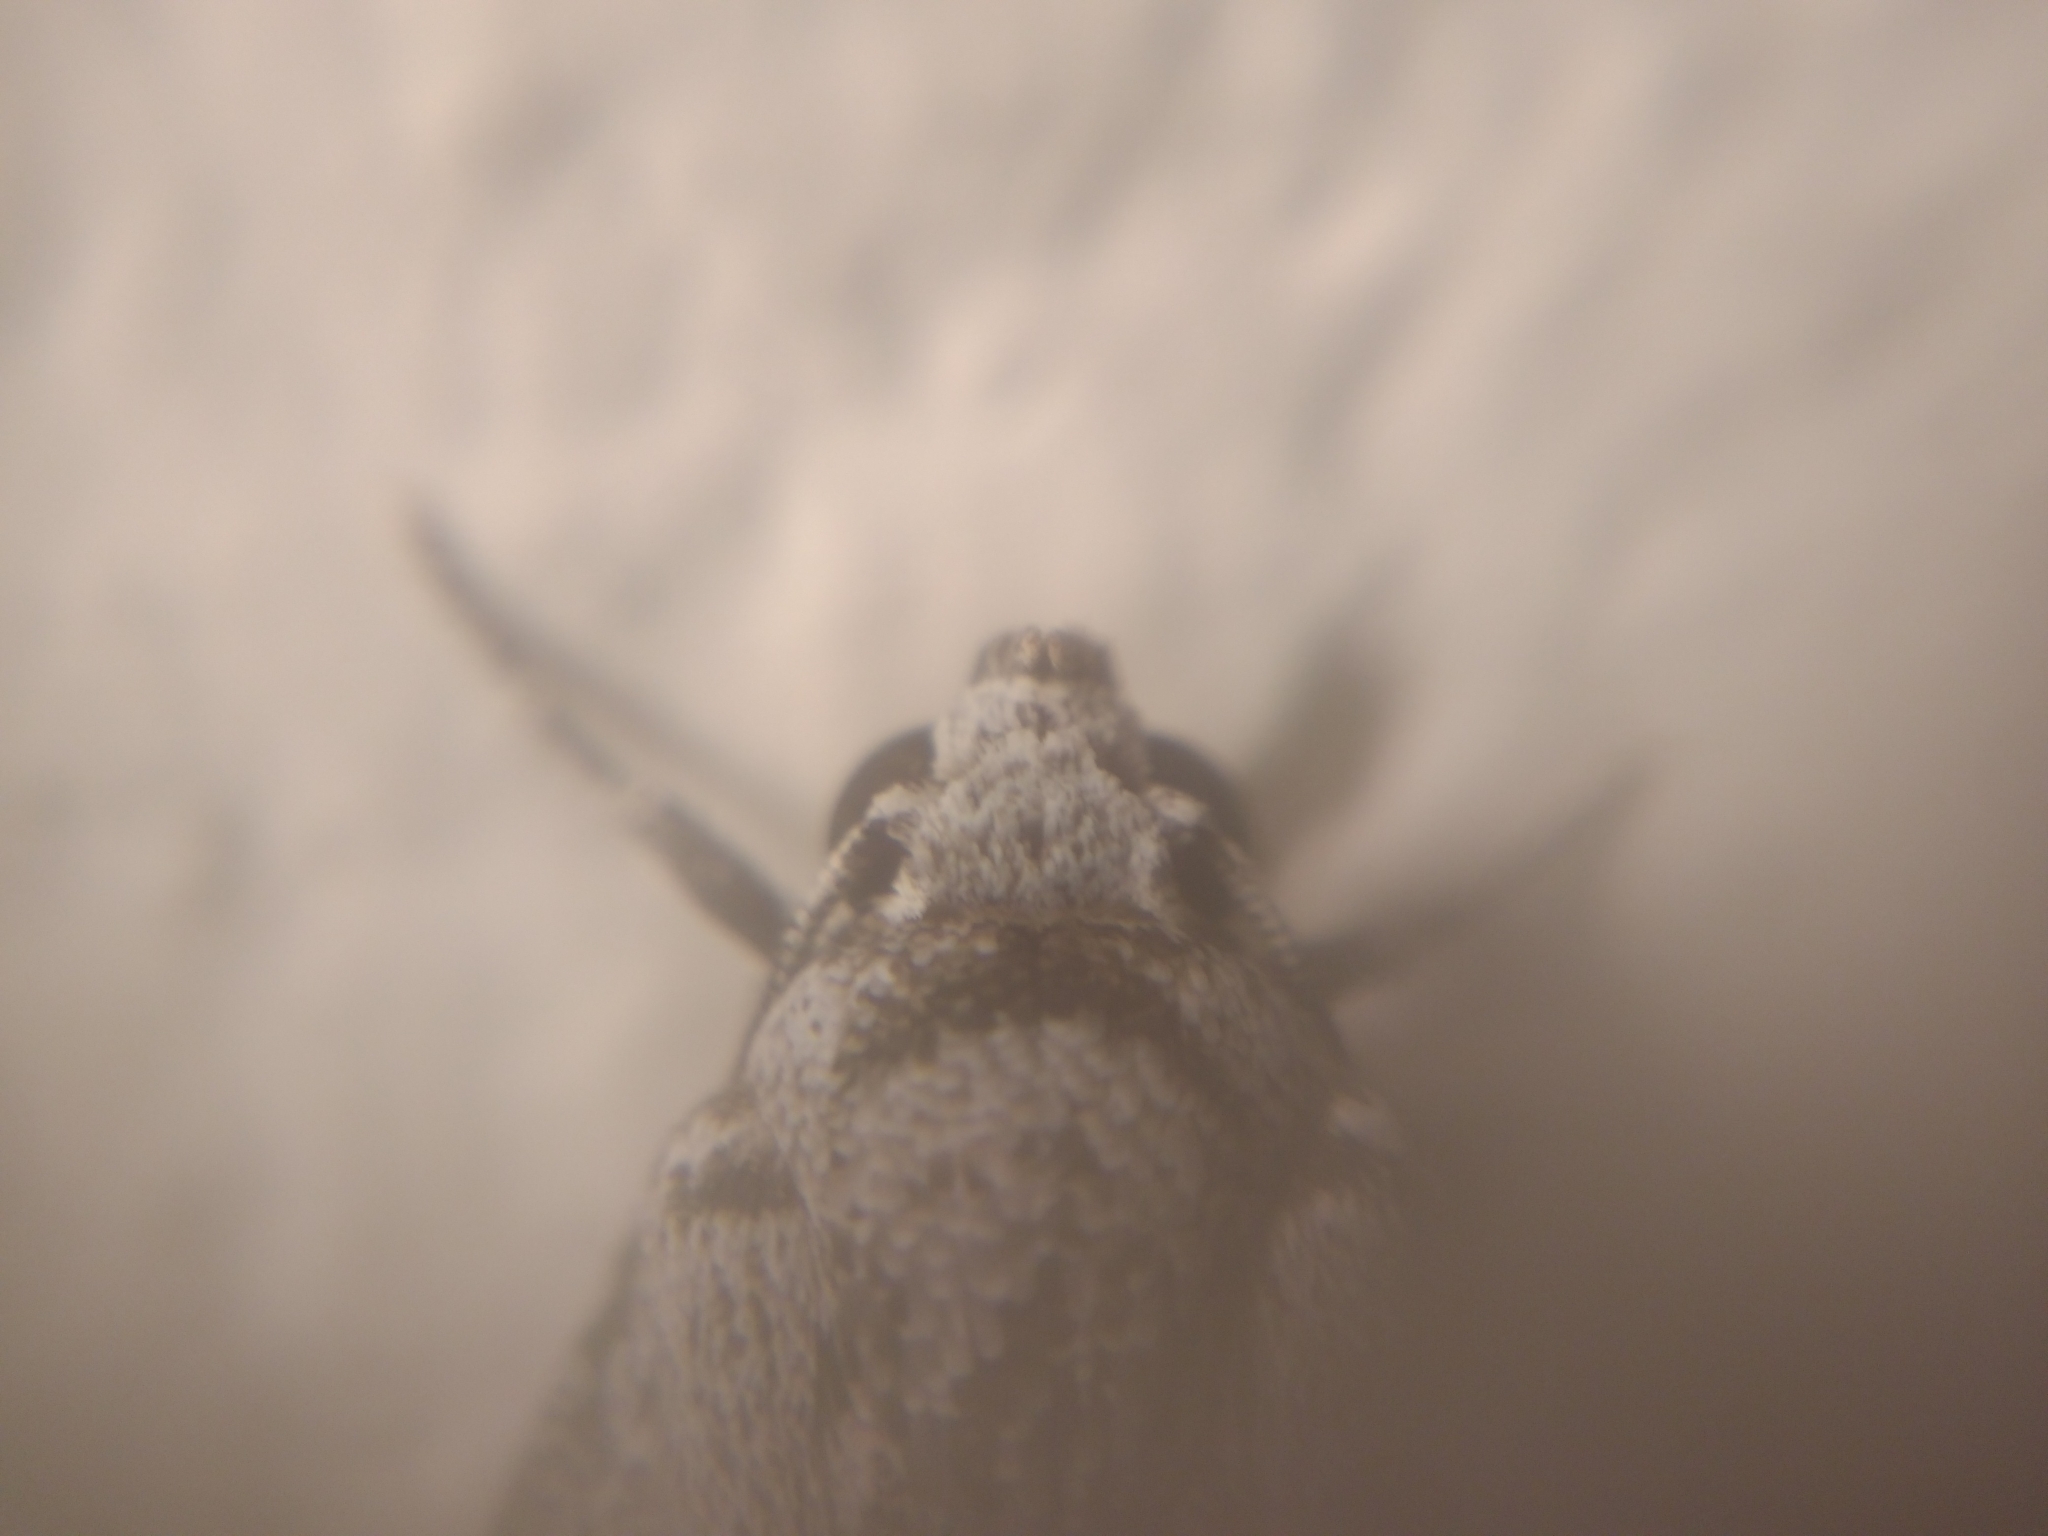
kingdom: Animalia
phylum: Arthropoda
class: Insecta
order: Lepidoptera
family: Erebidae
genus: Audea
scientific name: Audea fumata
